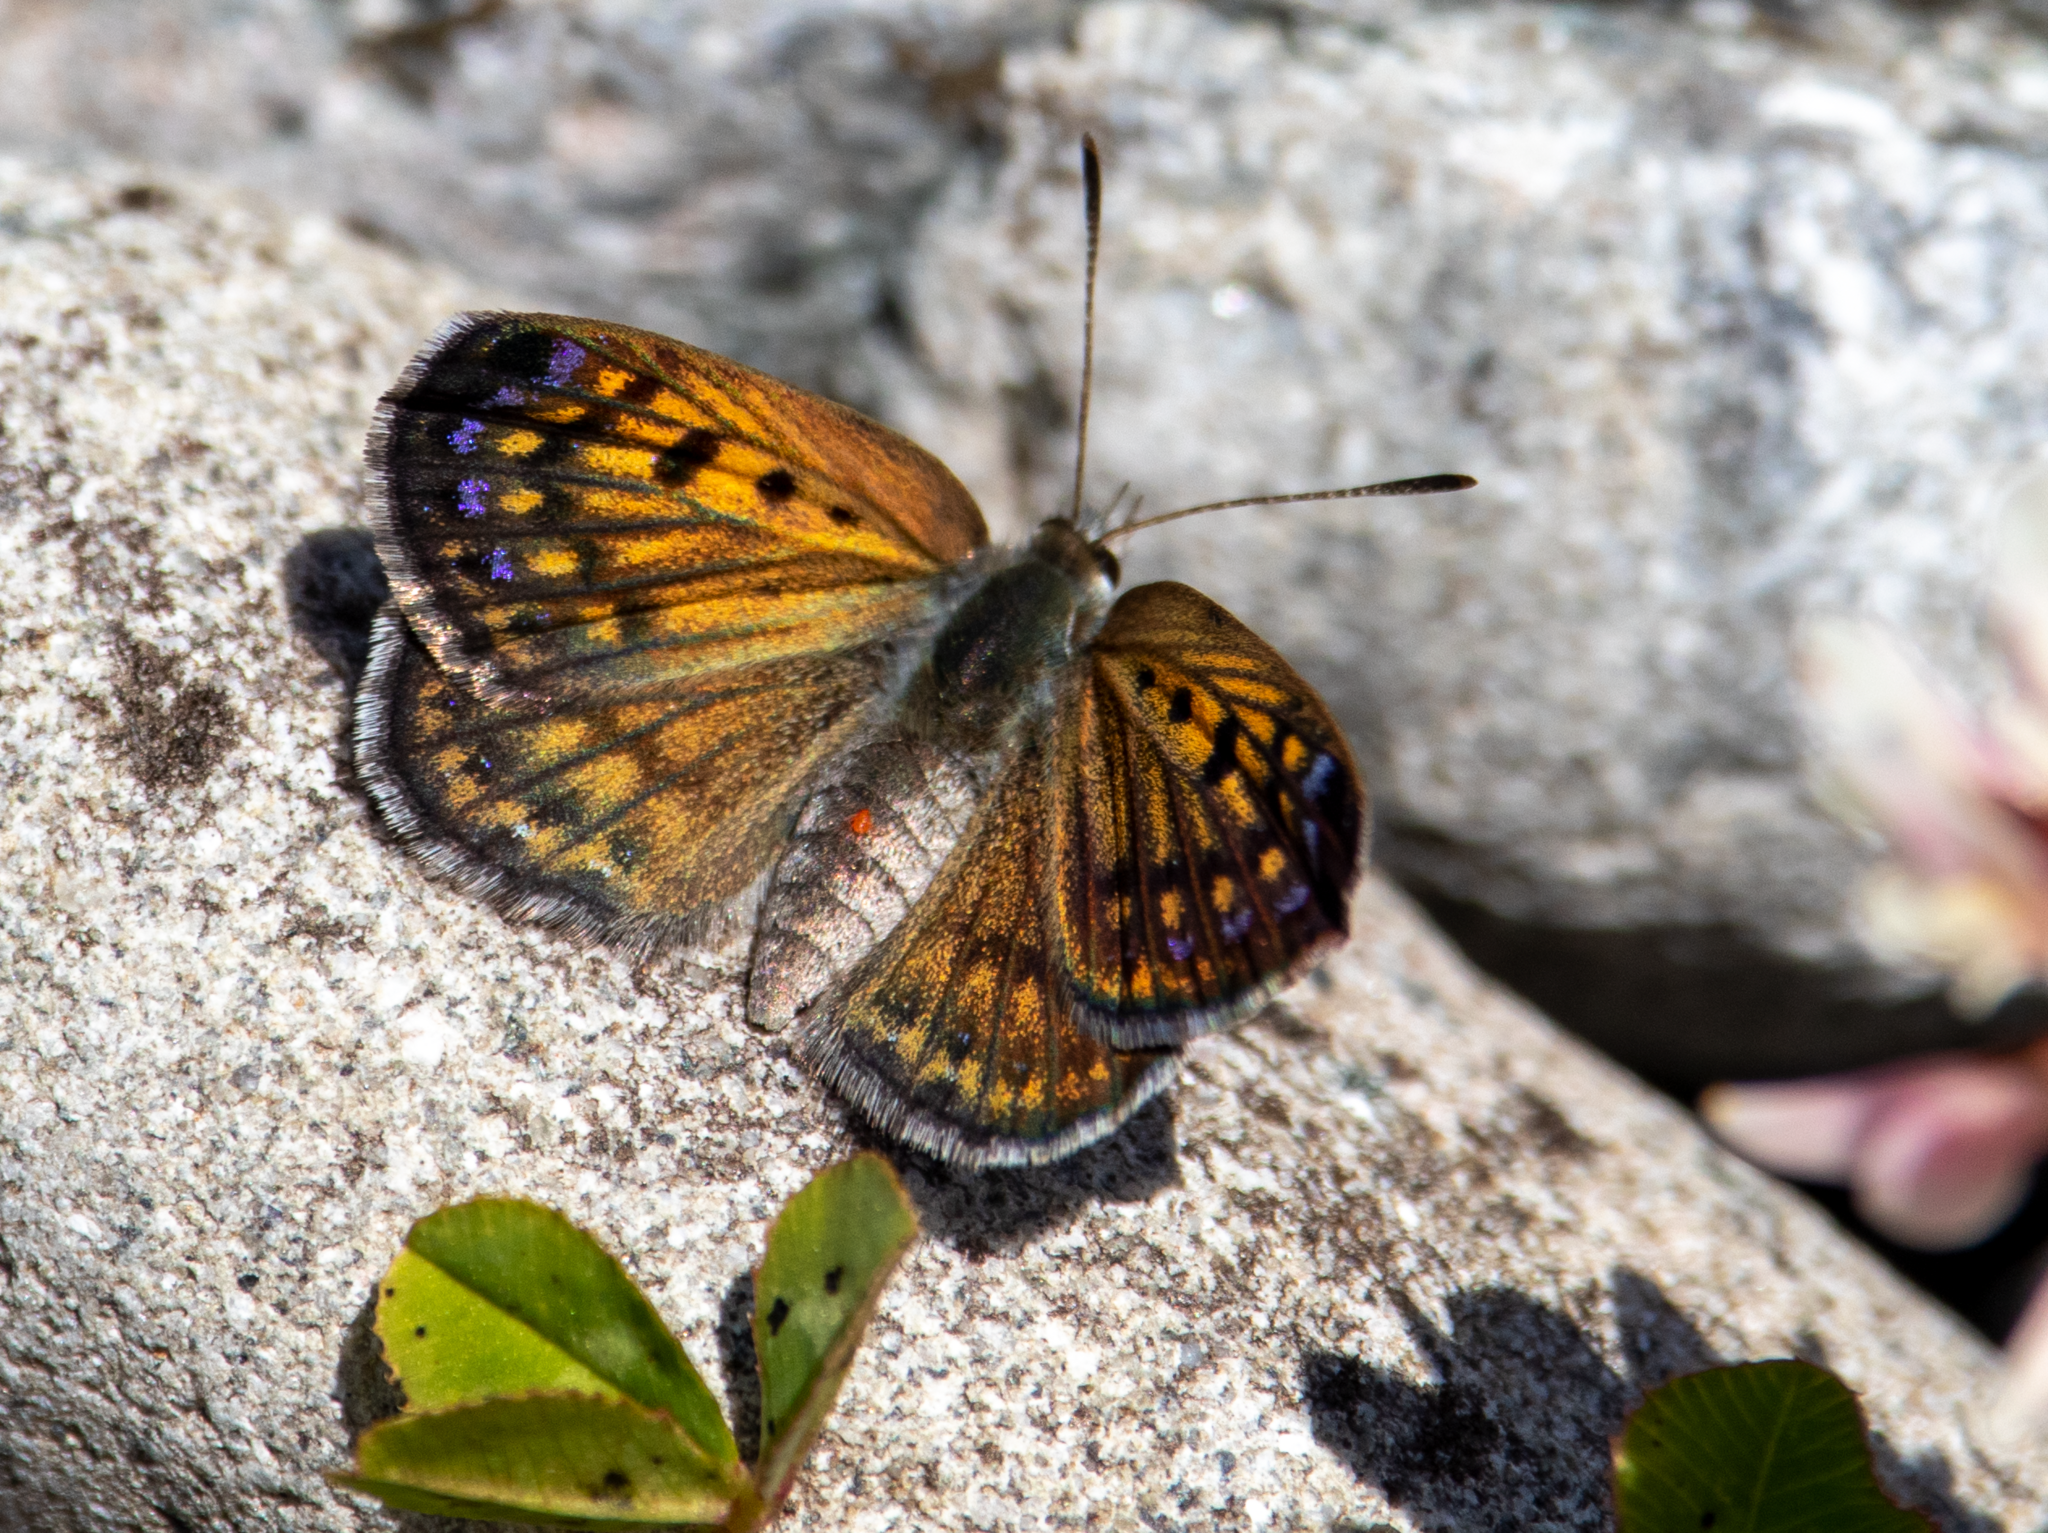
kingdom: Animalia
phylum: Arthropoda
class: Insecta
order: Lepidoptera
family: Lycaenidae
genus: Lycaena
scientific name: Lycaena tama
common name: Canterbury alpine boulder copper
